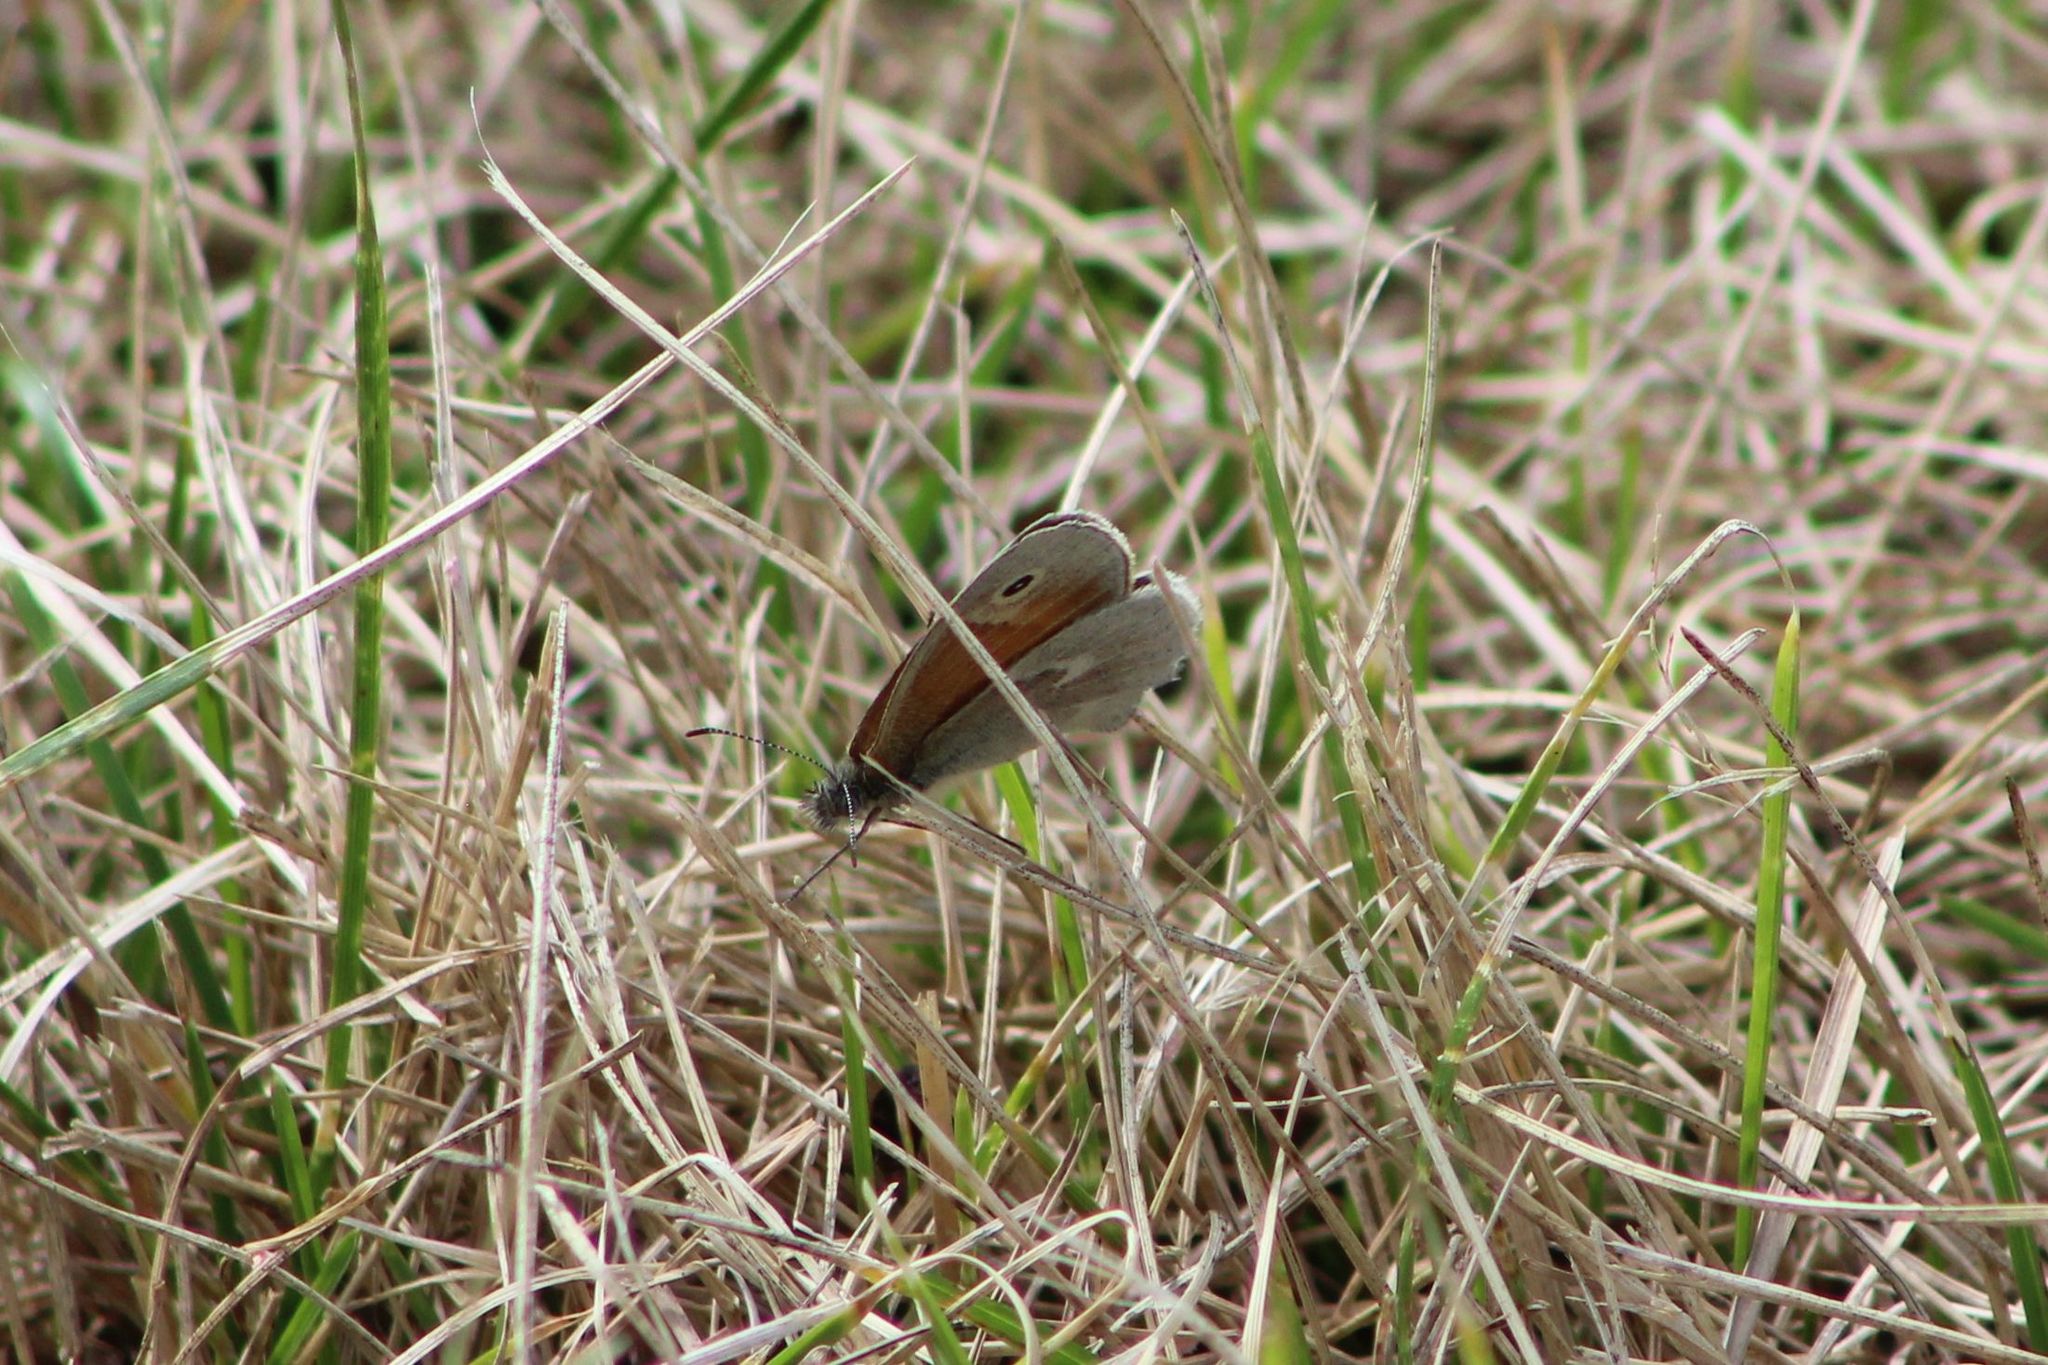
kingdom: Animalia
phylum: Arthropoda
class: Insecta
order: Lepidoptera
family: Nymphalidae
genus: Coenonympha
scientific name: Coenonympha california
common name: Common ringlet
